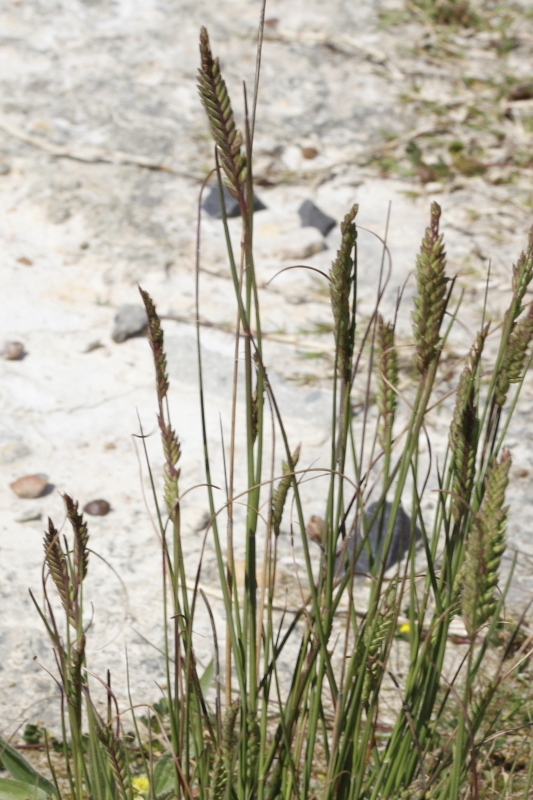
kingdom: Plantae
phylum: Tracheophyta
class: Liliopsida
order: Poales
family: Poaceae
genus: Tribolium
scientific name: Tribolium uniolae
